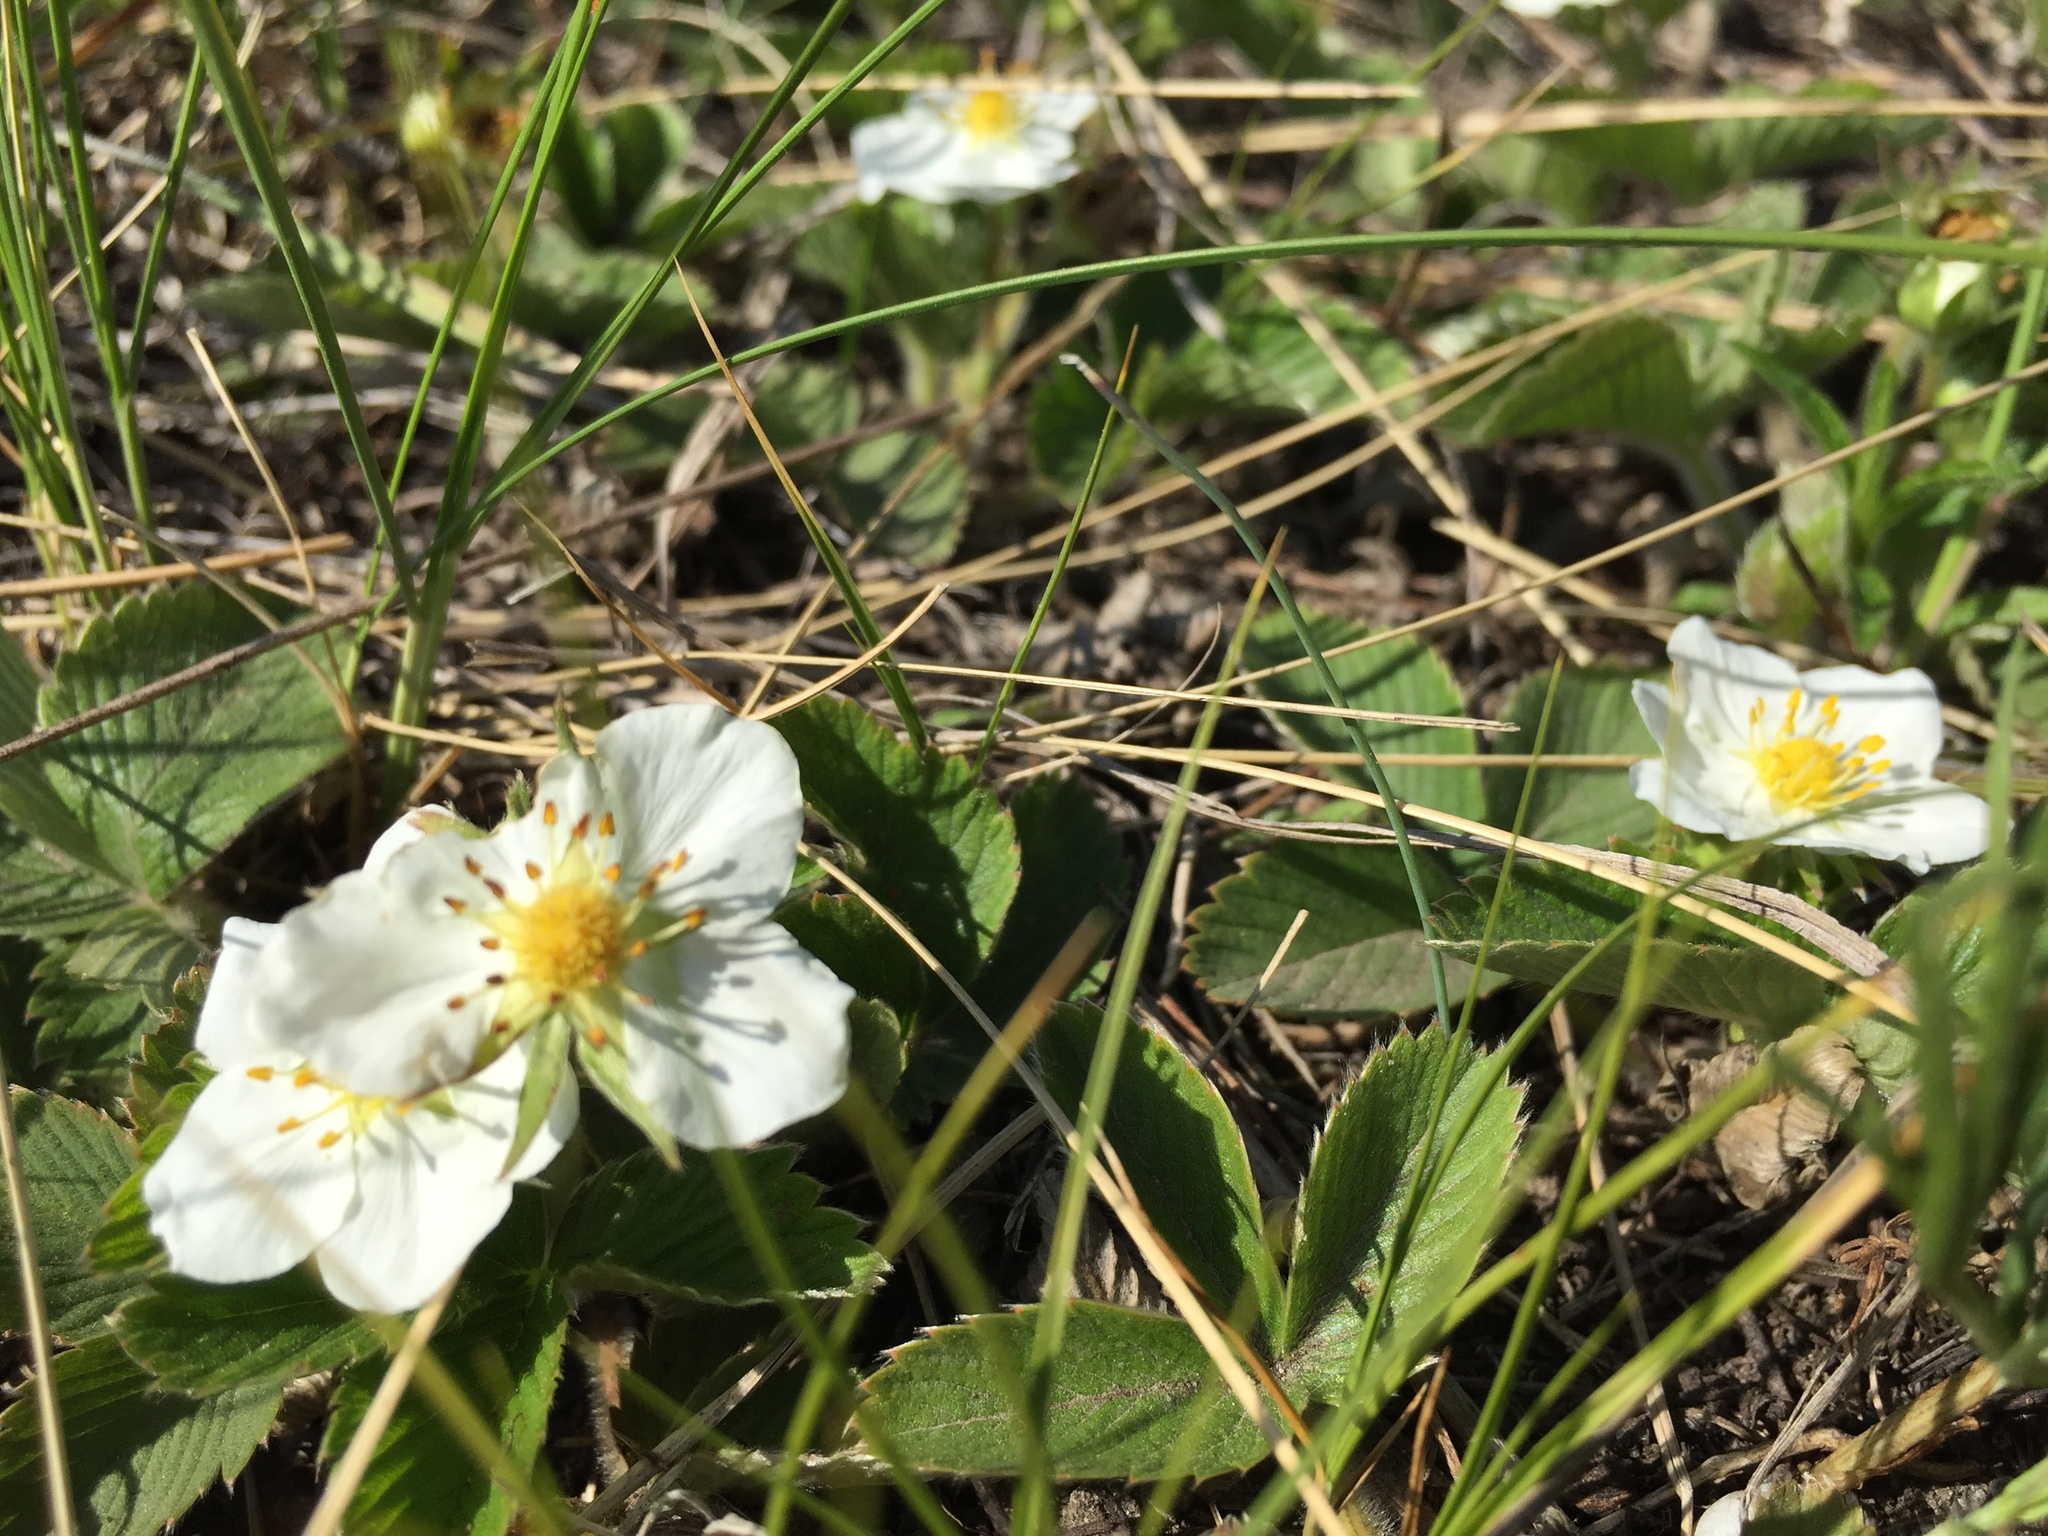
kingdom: Plantae
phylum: Tracheophyta
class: Magnoliopsida
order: Rosales
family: Rosaceae
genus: Fragaria
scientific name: Fragaria viridis
